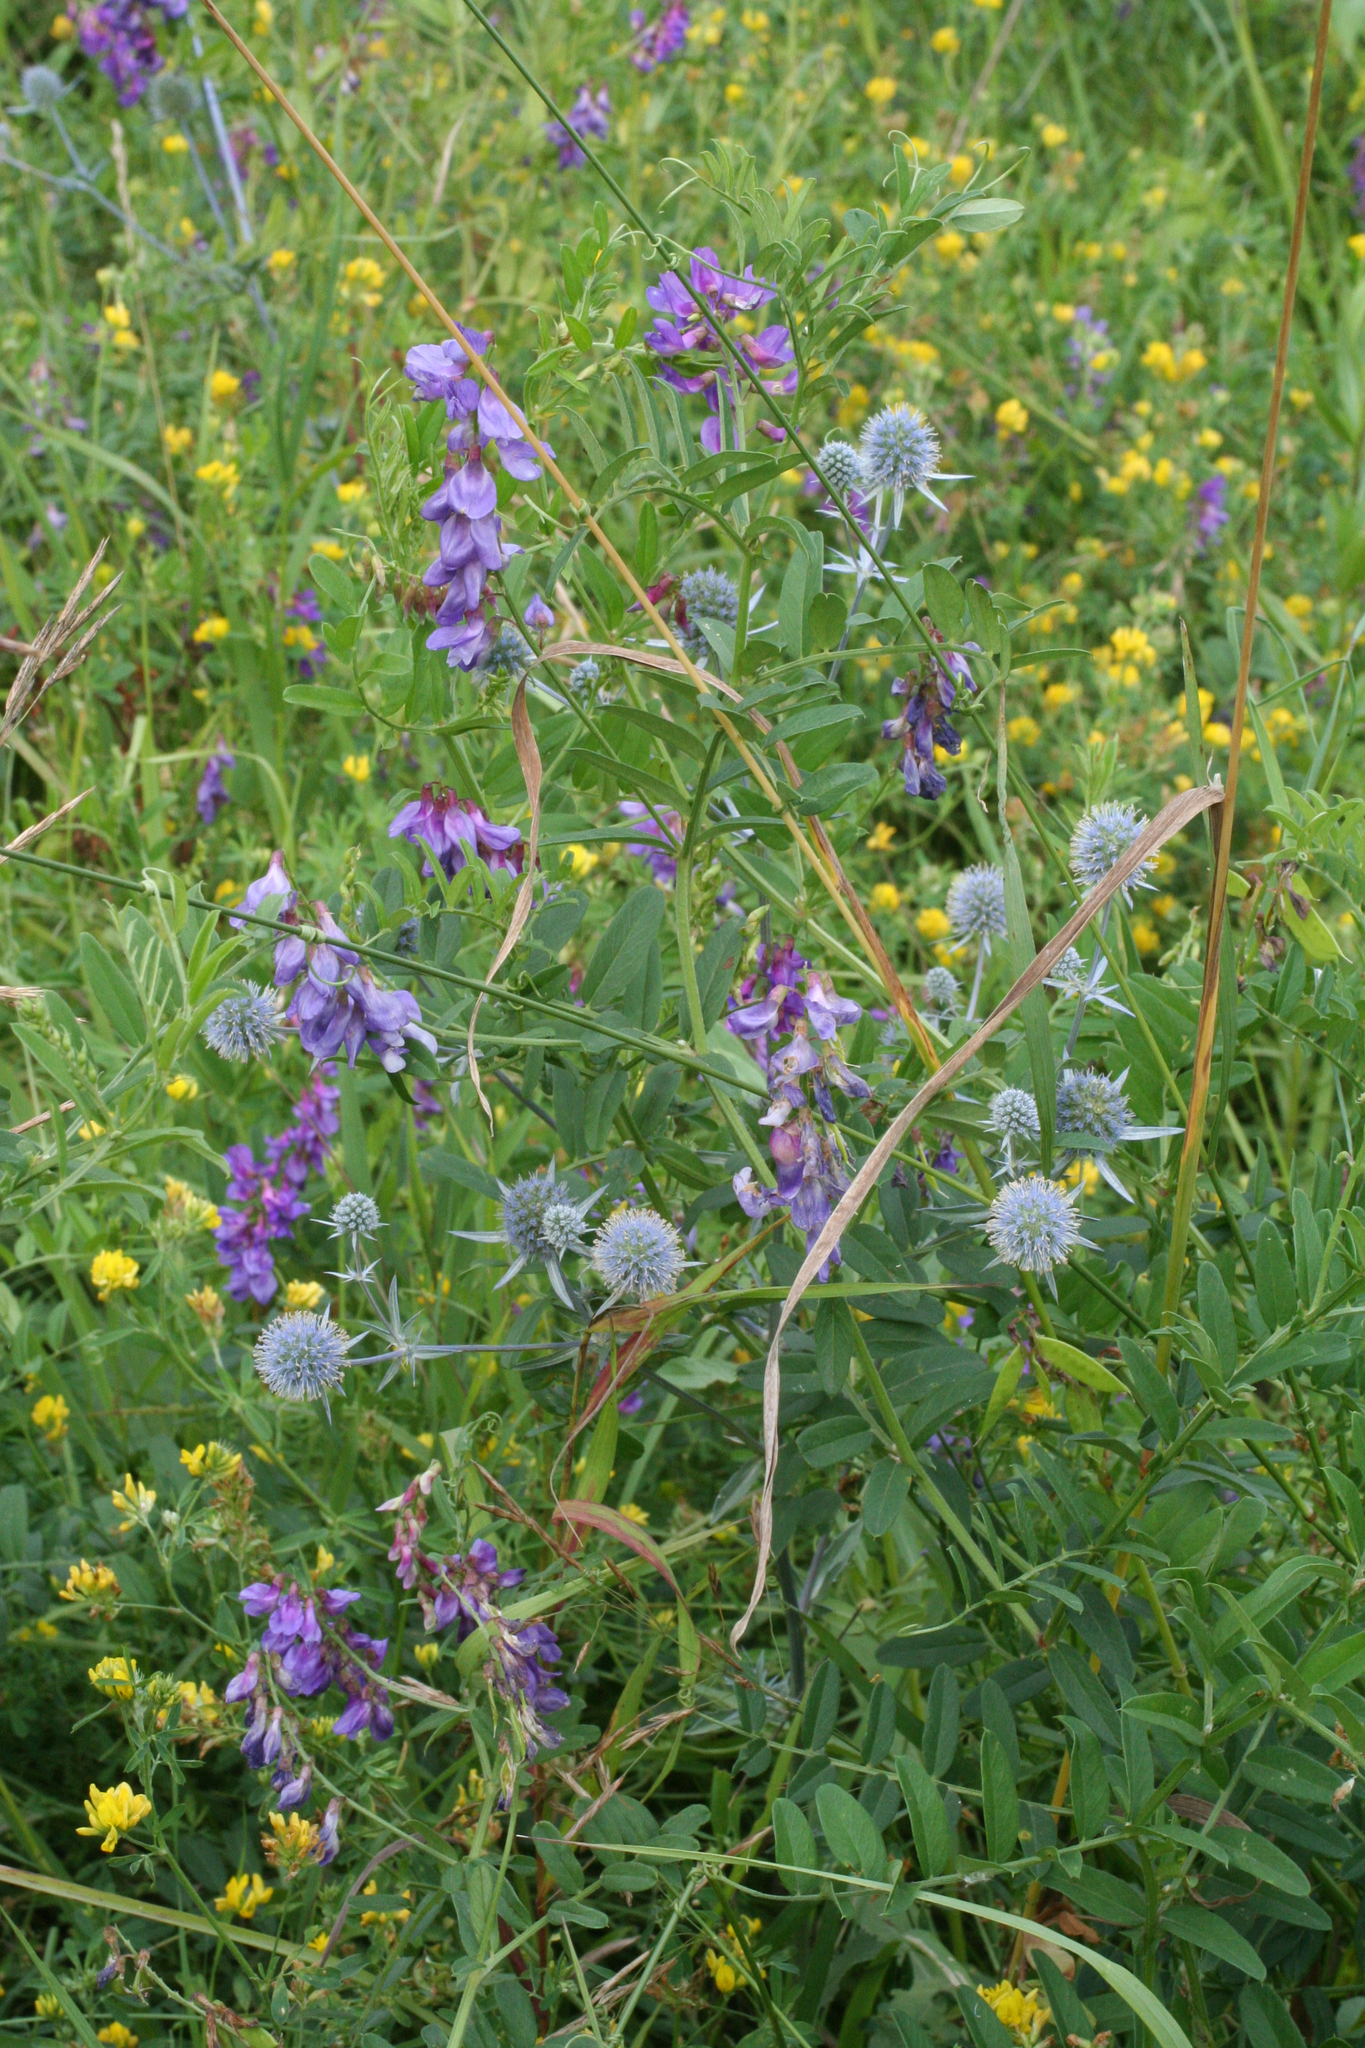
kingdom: Plantae
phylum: Tracheophyta
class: Magnoliopsida
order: Apiales
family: Apiaceae
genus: Eryngium
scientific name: Eryngium planum
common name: Blue eryngo
